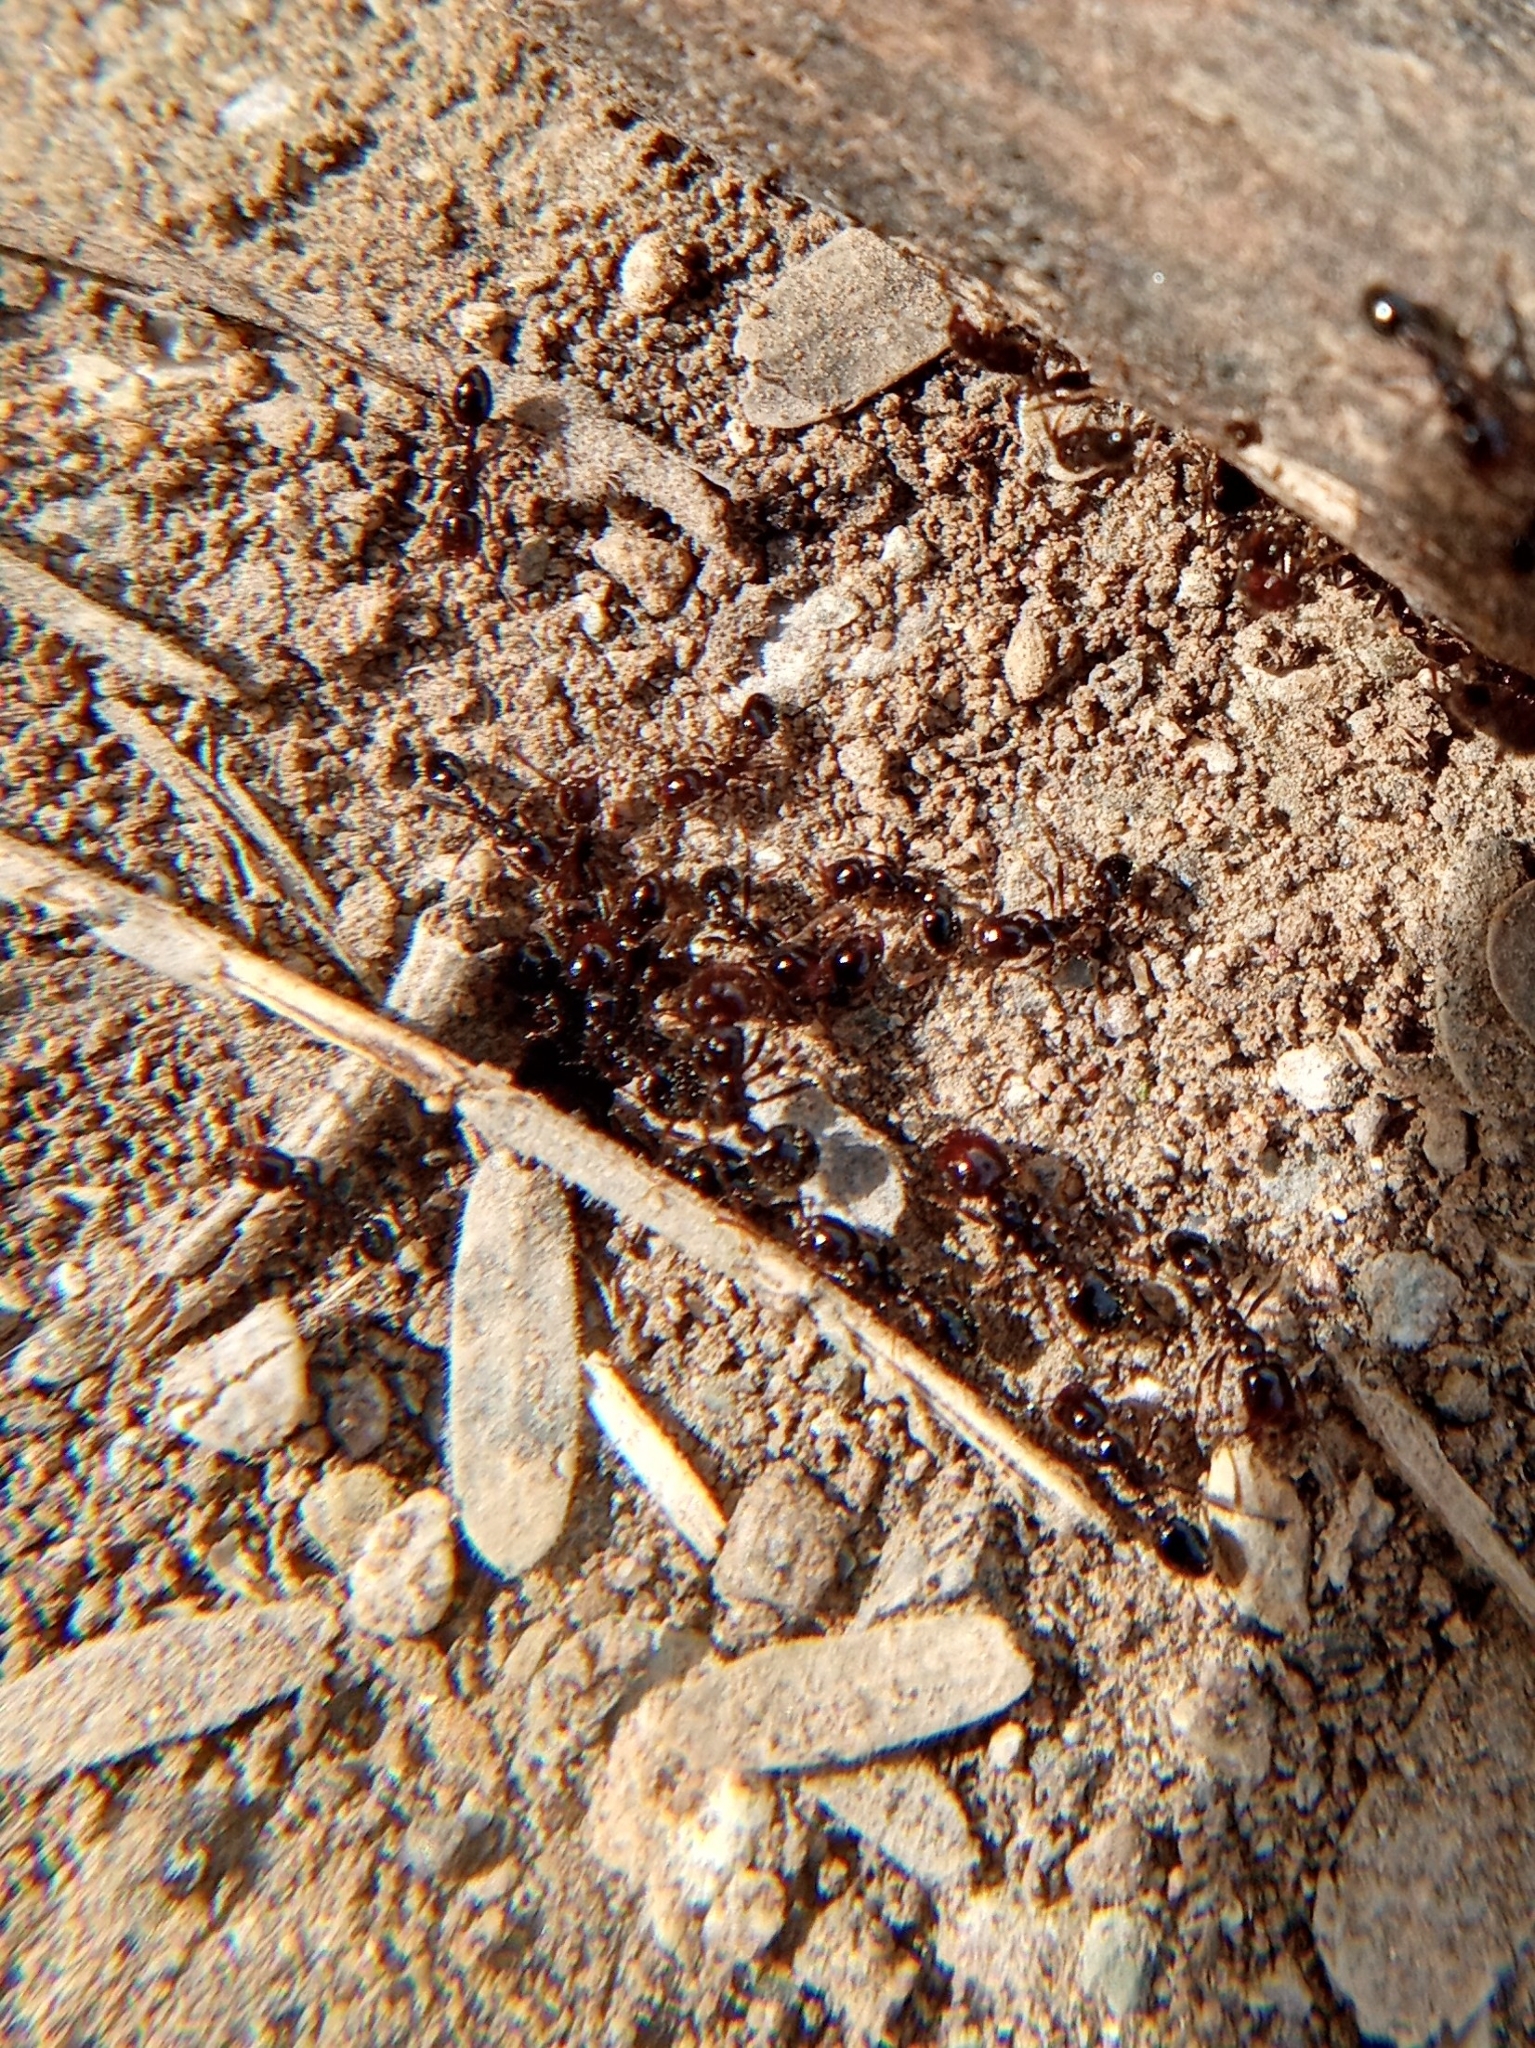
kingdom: Animalia
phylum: Arthropoda
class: Insecta
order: Hymenoptera
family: Formicidae
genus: Solenopsis
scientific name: Solenopsis xyloni
